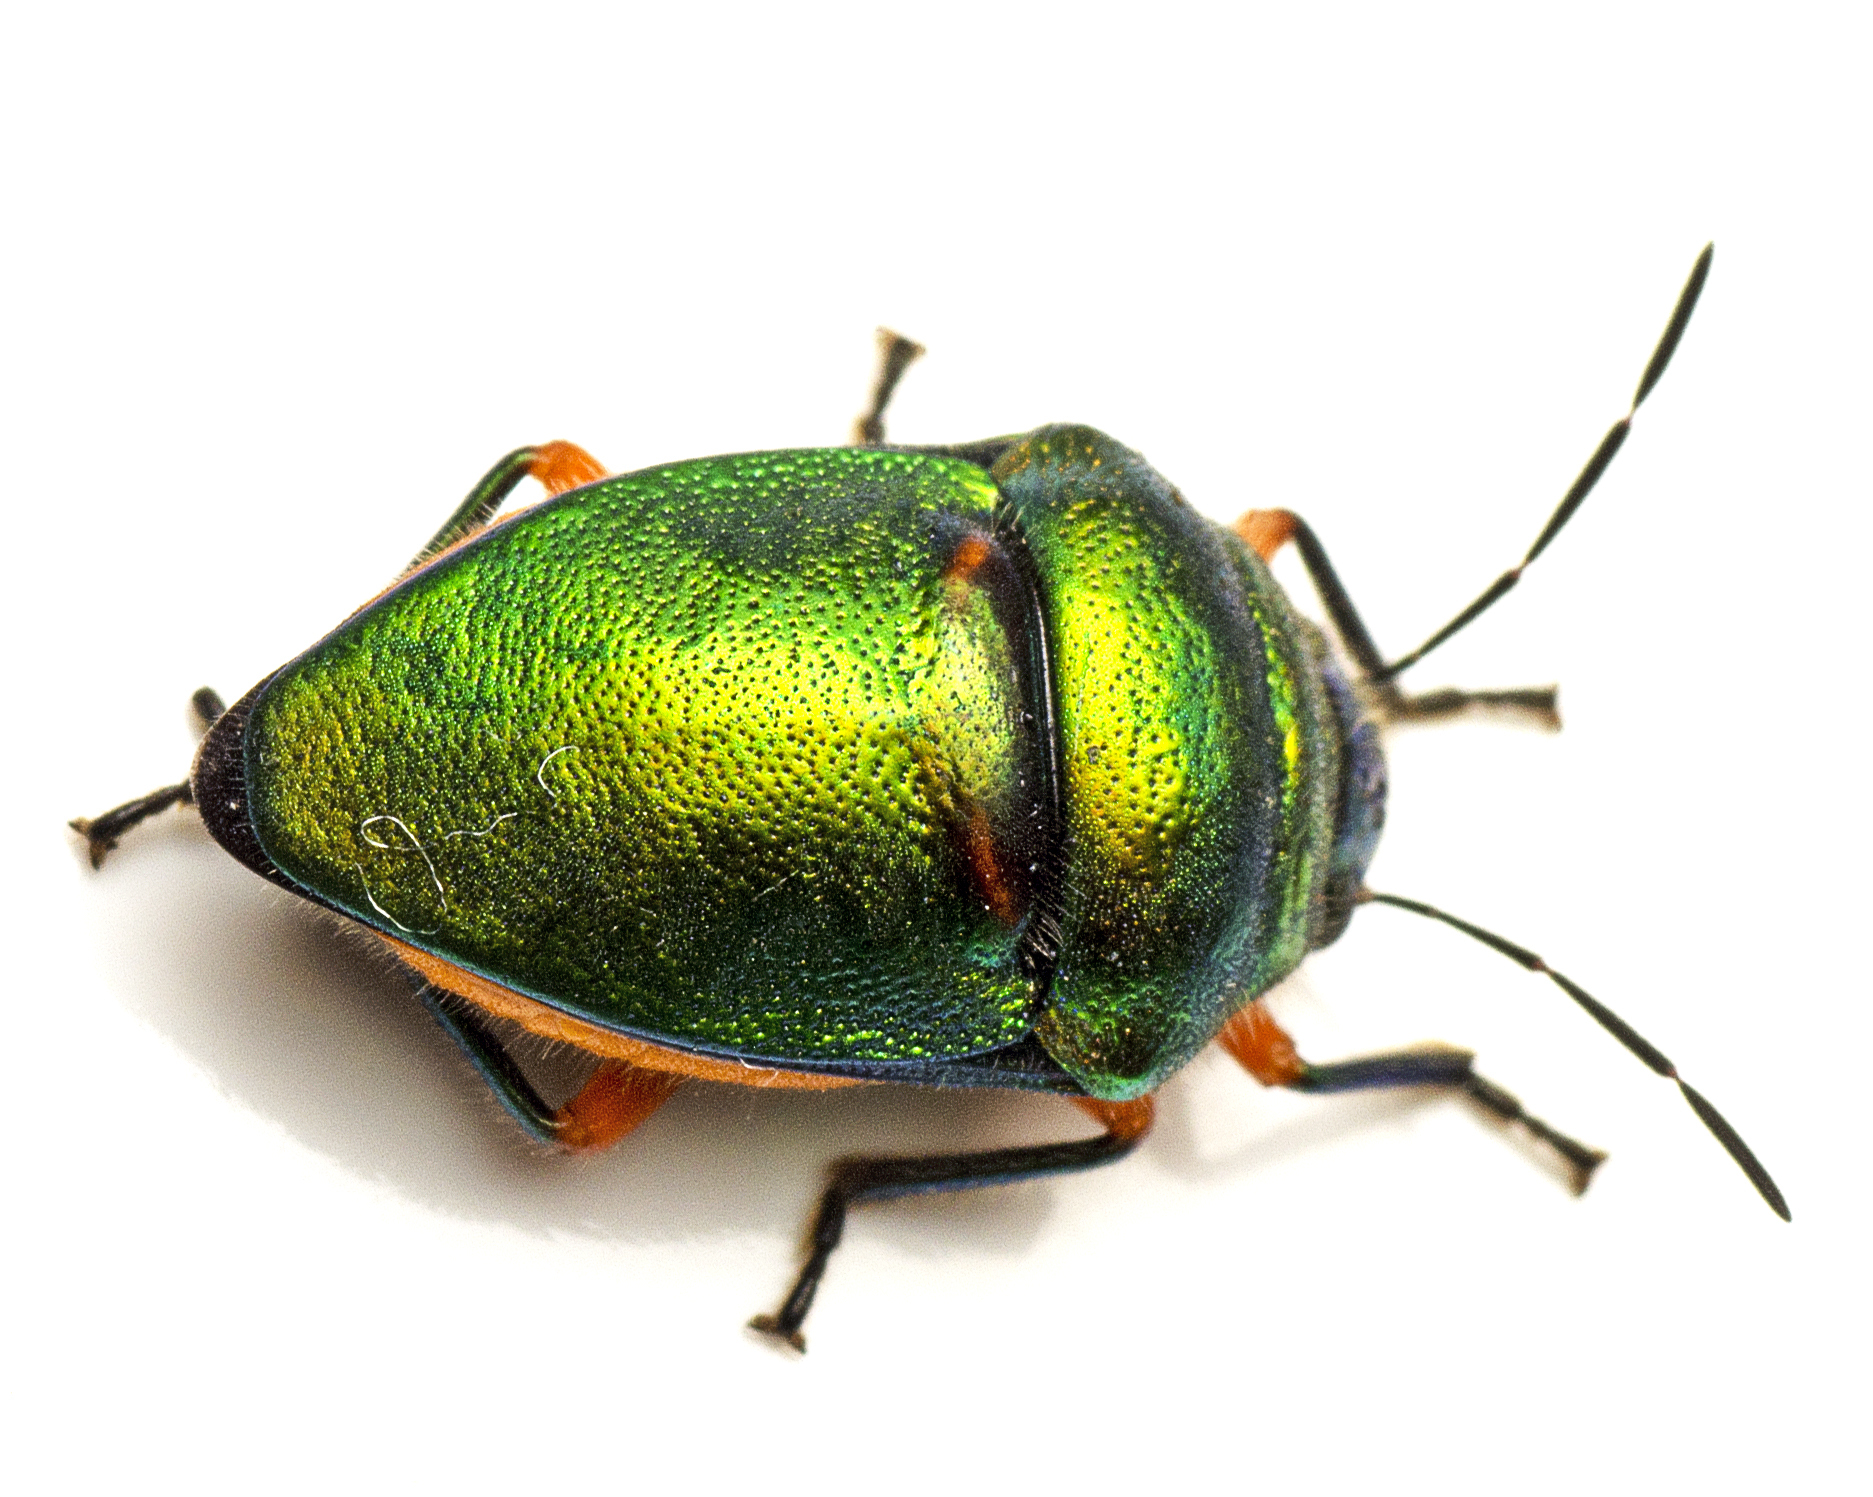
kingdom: Animalia
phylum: Arthropoda
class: Insecta
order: Hemiptera
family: Scutelleridae
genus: Lampromicra
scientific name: Lampromicra senator
